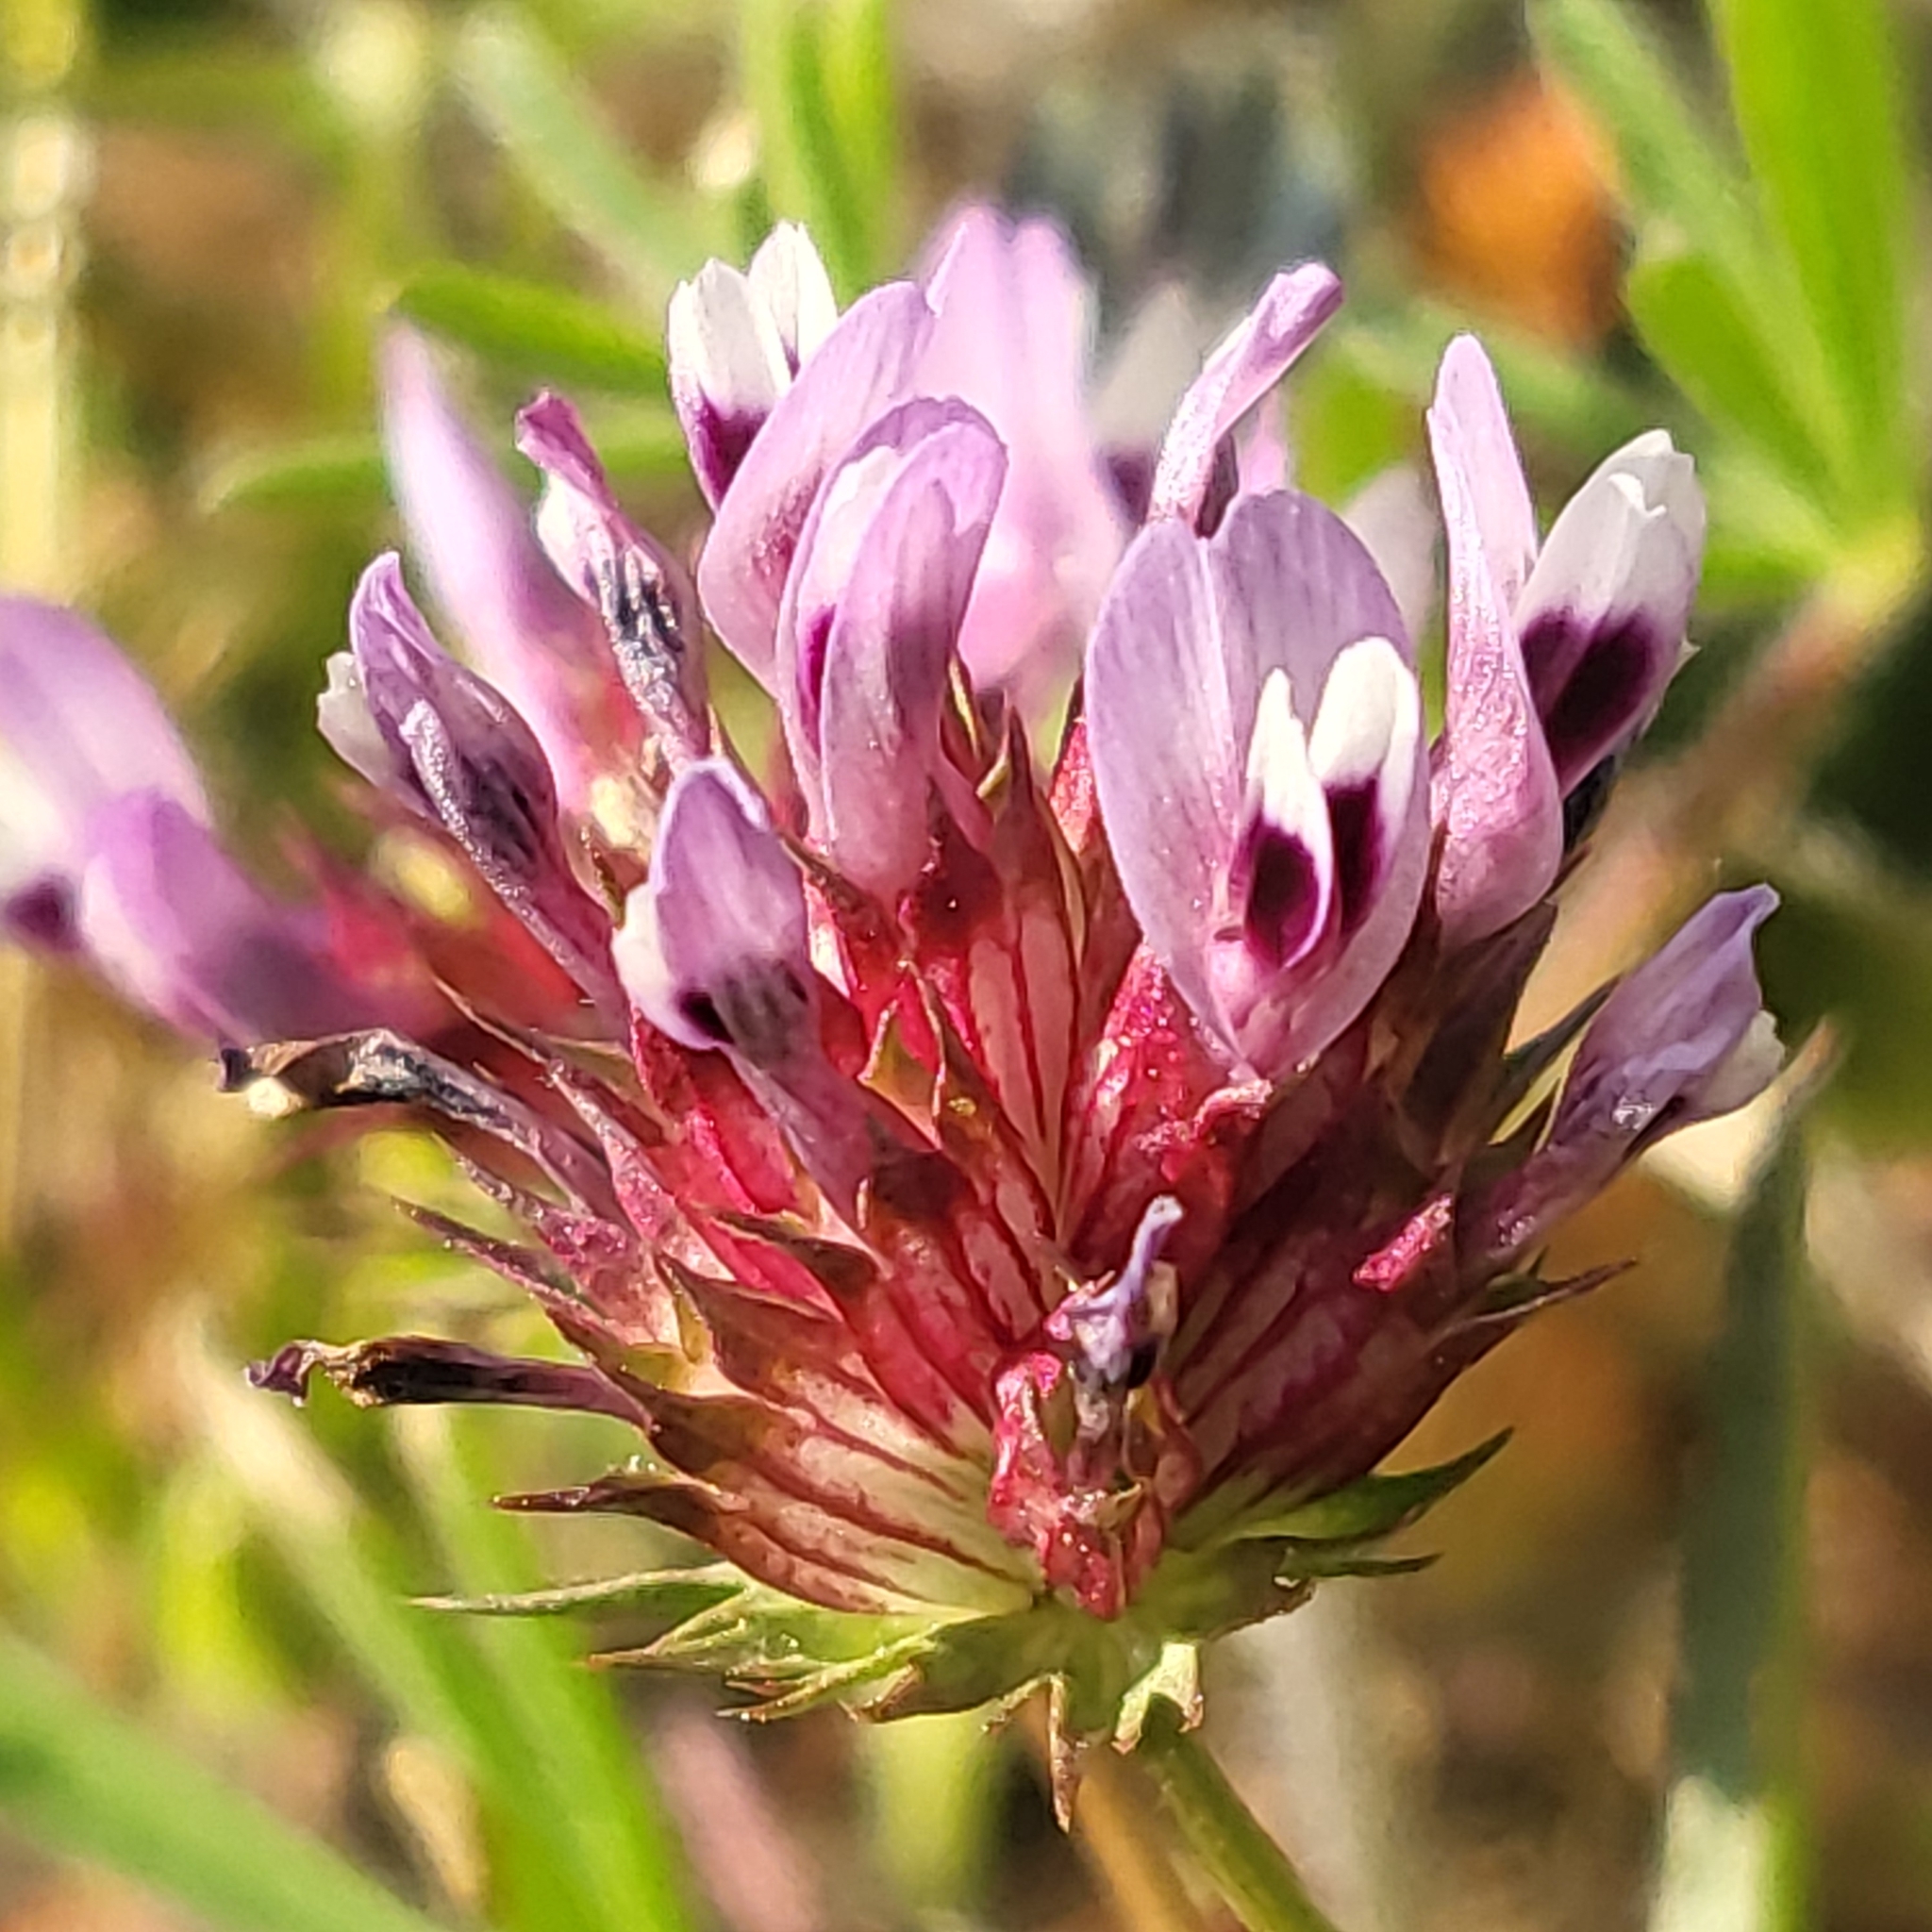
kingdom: Plantae
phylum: Tracheophyta
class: Magnoliopsida
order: Fabales
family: Fabaceae
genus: Trifolium
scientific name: Trifolium willdenovii
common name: Tomcat clover
